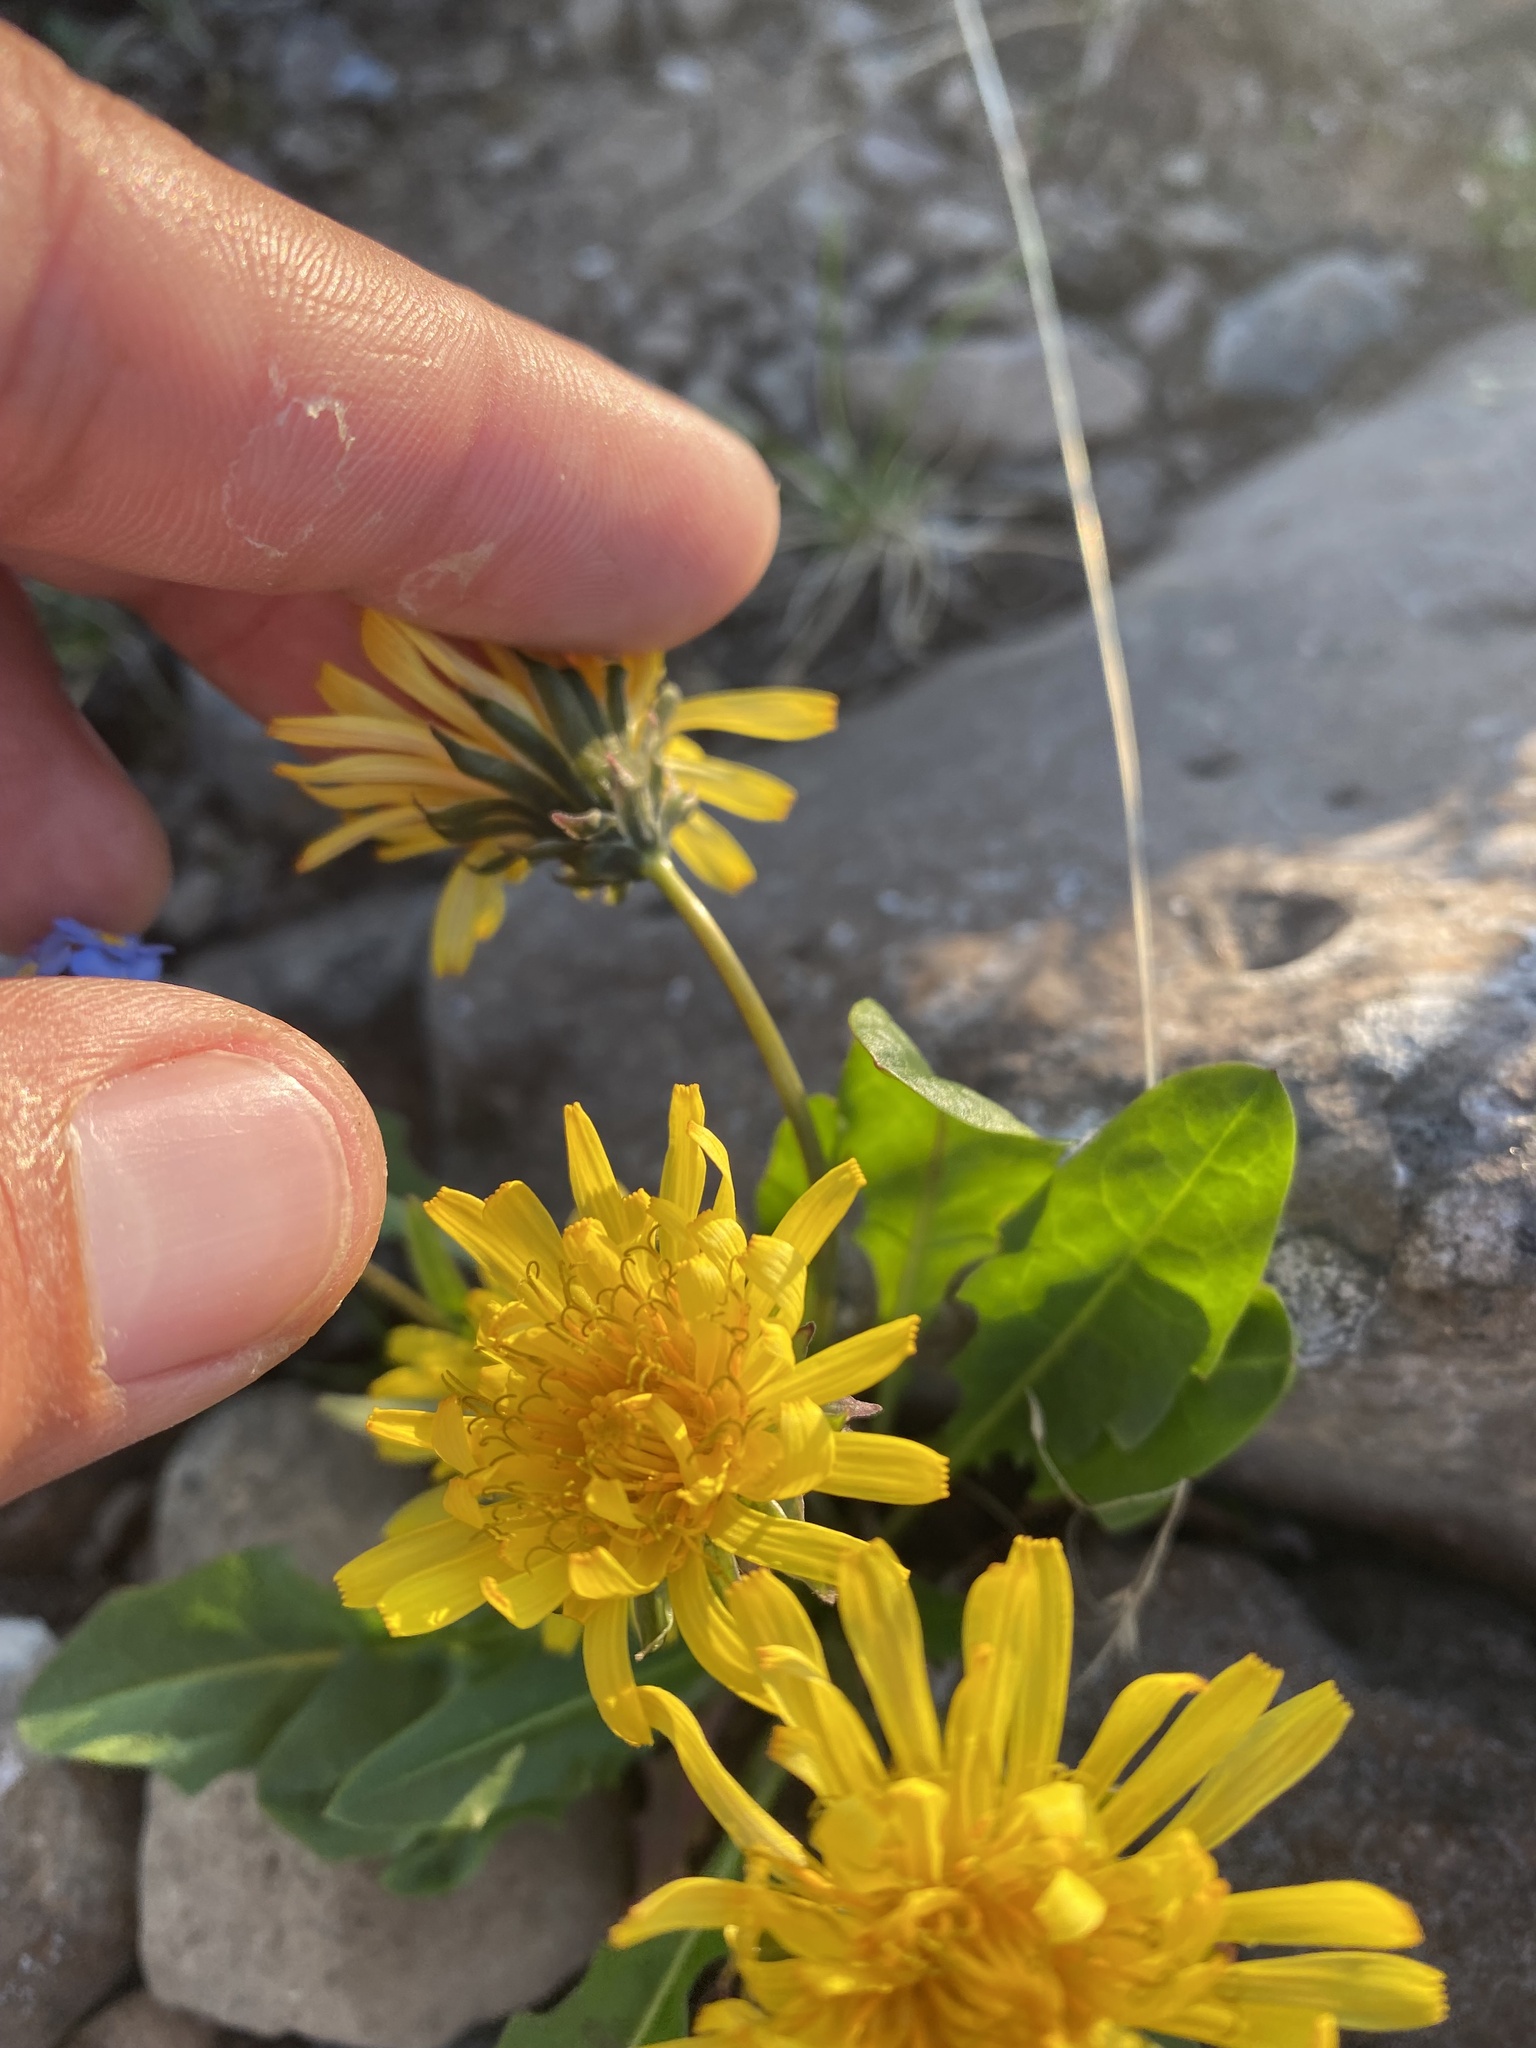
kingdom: Plantae
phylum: Tracheophyta
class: Magnoliopsida
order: Asterales
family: Asteraceae
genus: Taraxacum
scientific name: Taraxacum glabrum
